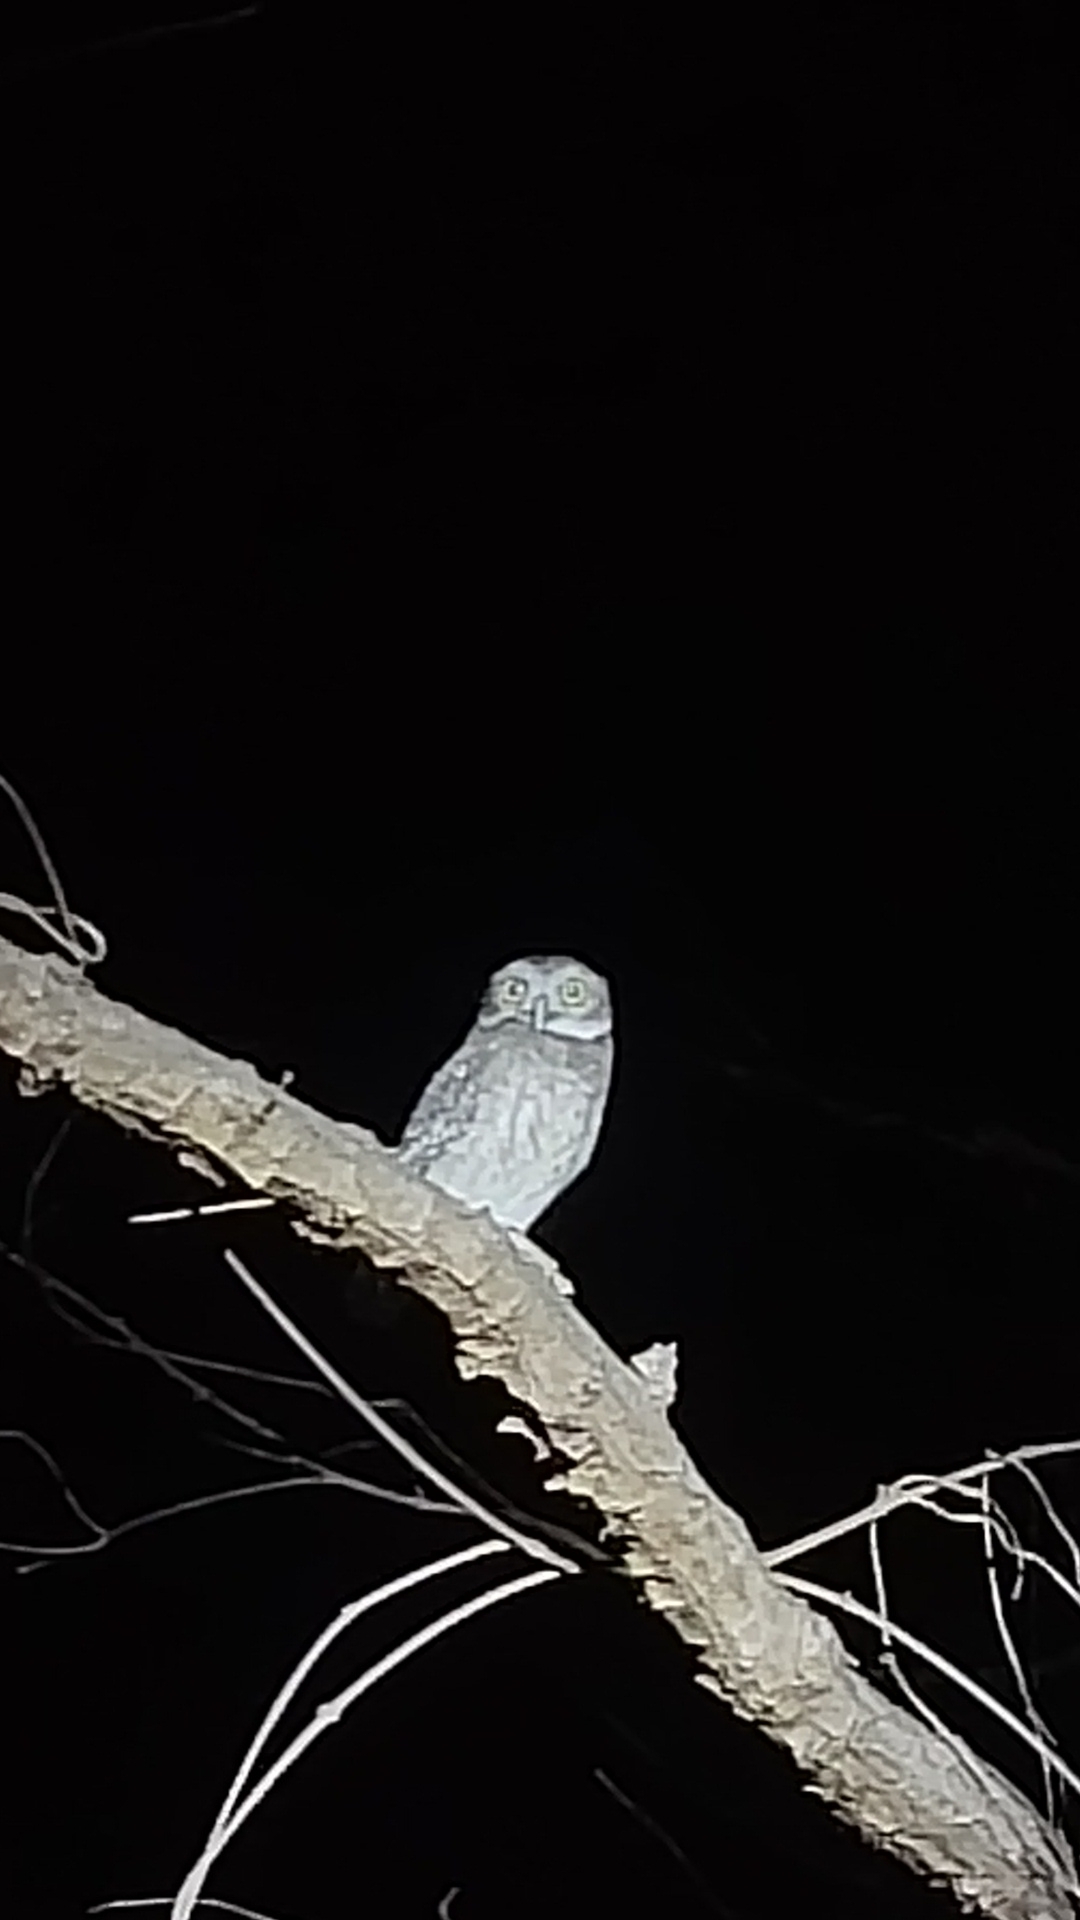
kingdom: Animalia
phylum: Chordata
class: Aves
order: Strigiformes
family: Strigidae
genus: Athene
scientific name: Athene brama
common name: Spotted owlet
